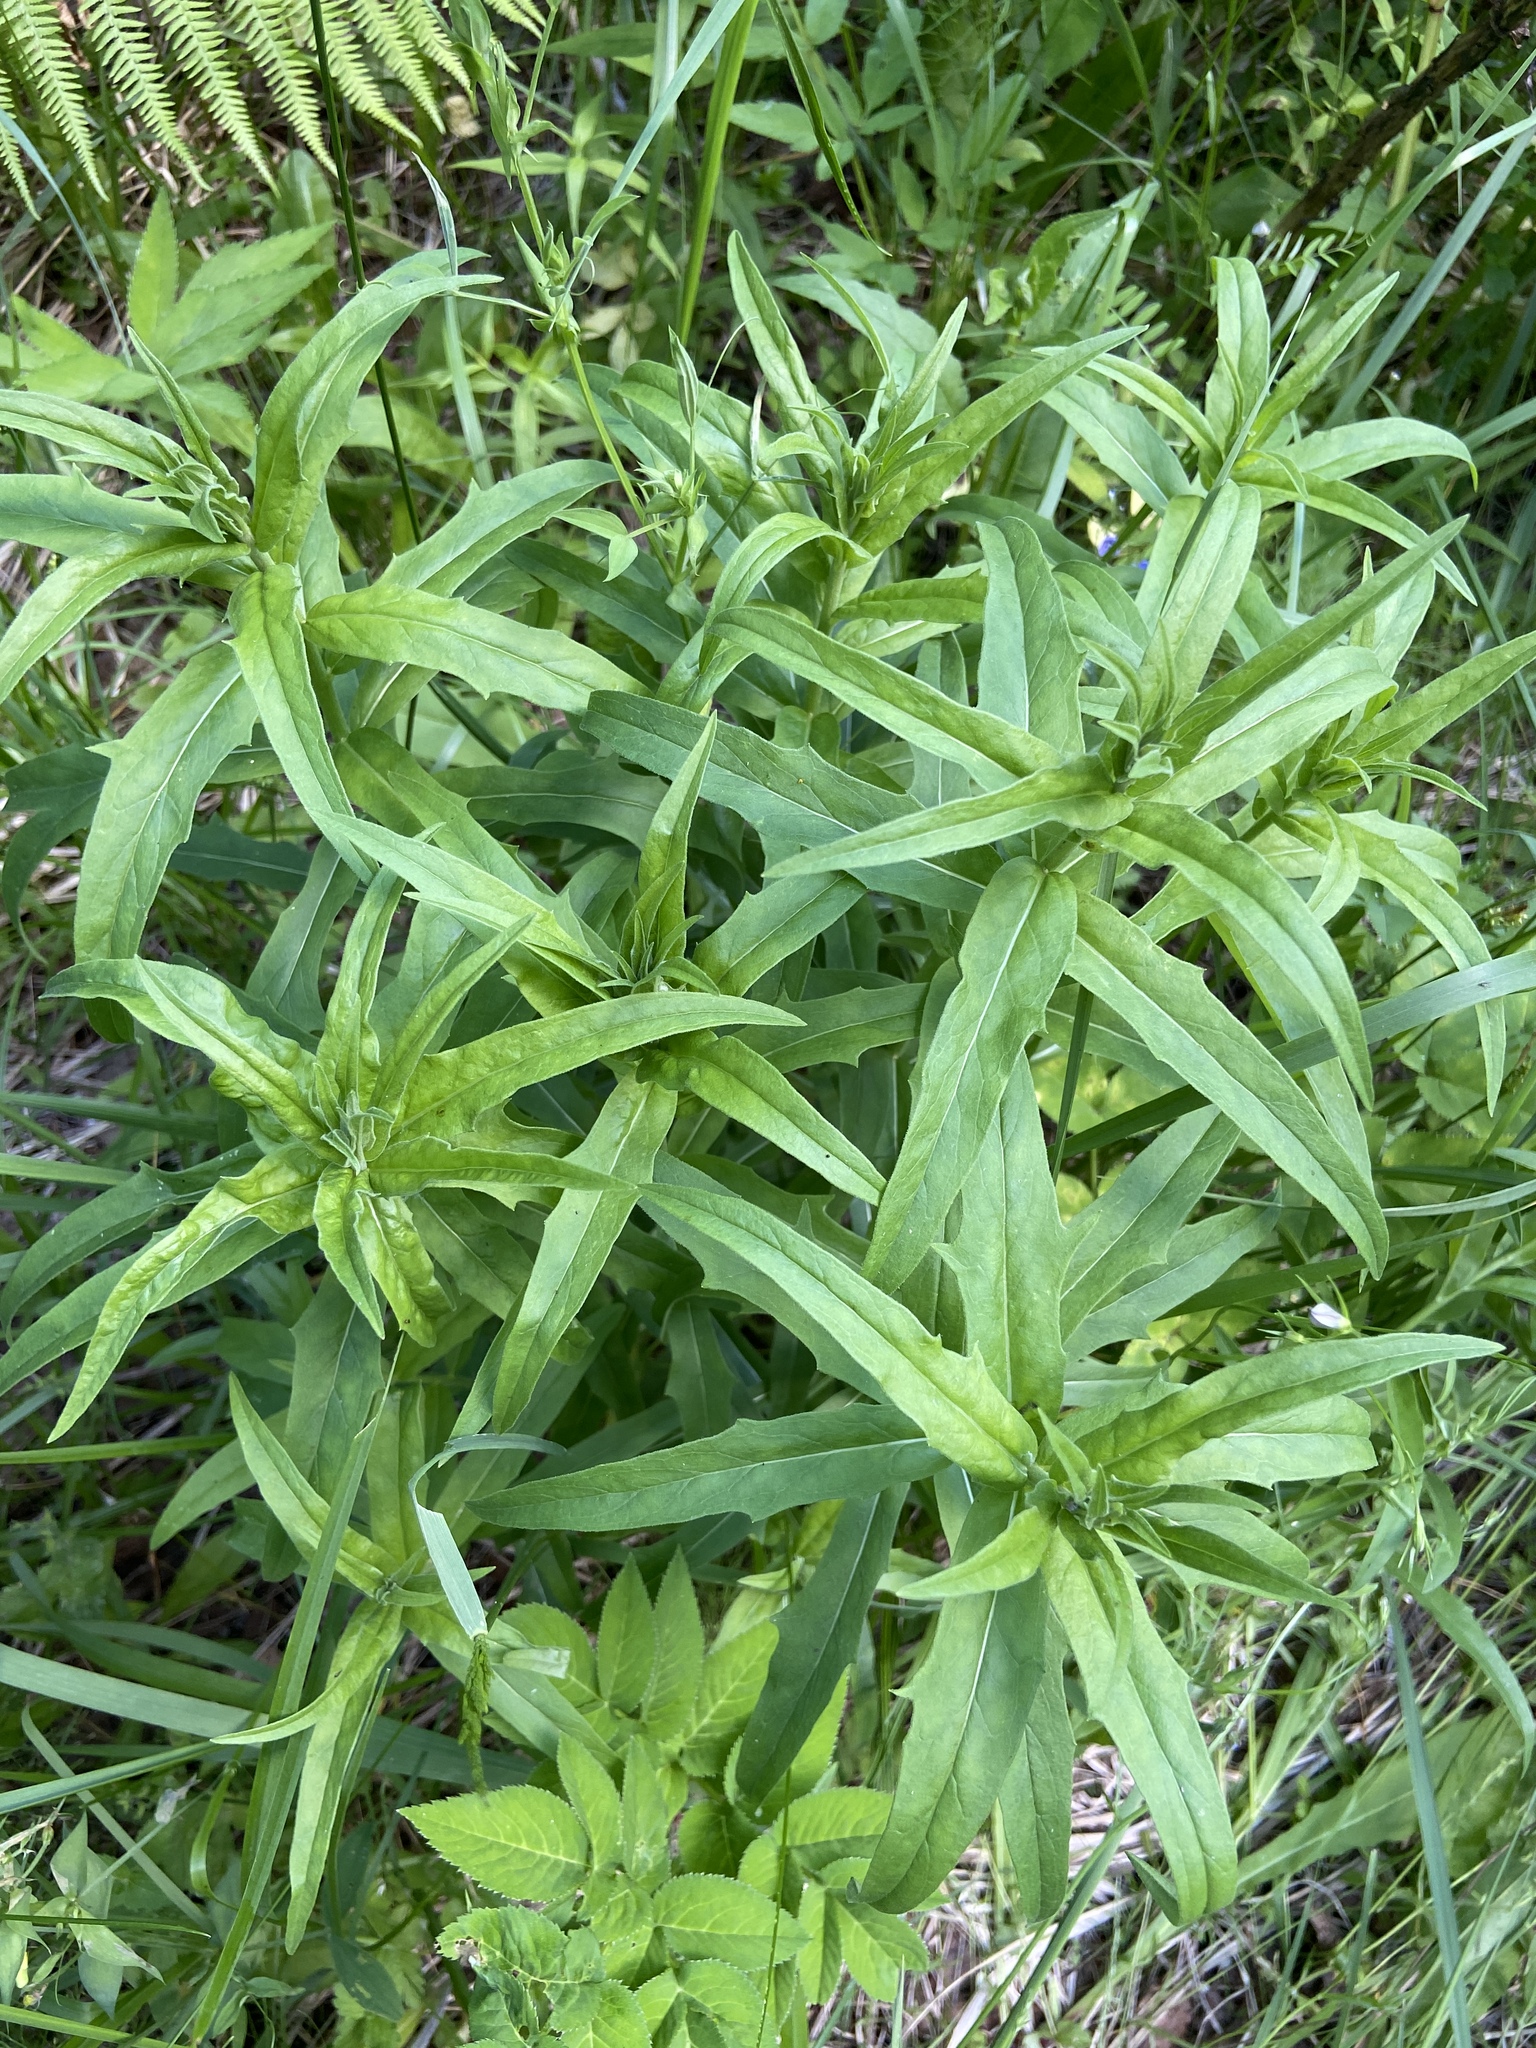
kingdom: Plantae
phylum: Tracheophyta
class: Magnoliopsida
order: Asterales
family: Asteraceae
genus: Hieracium
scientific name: Hieracium umbellatum
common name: Northern hawkweed
